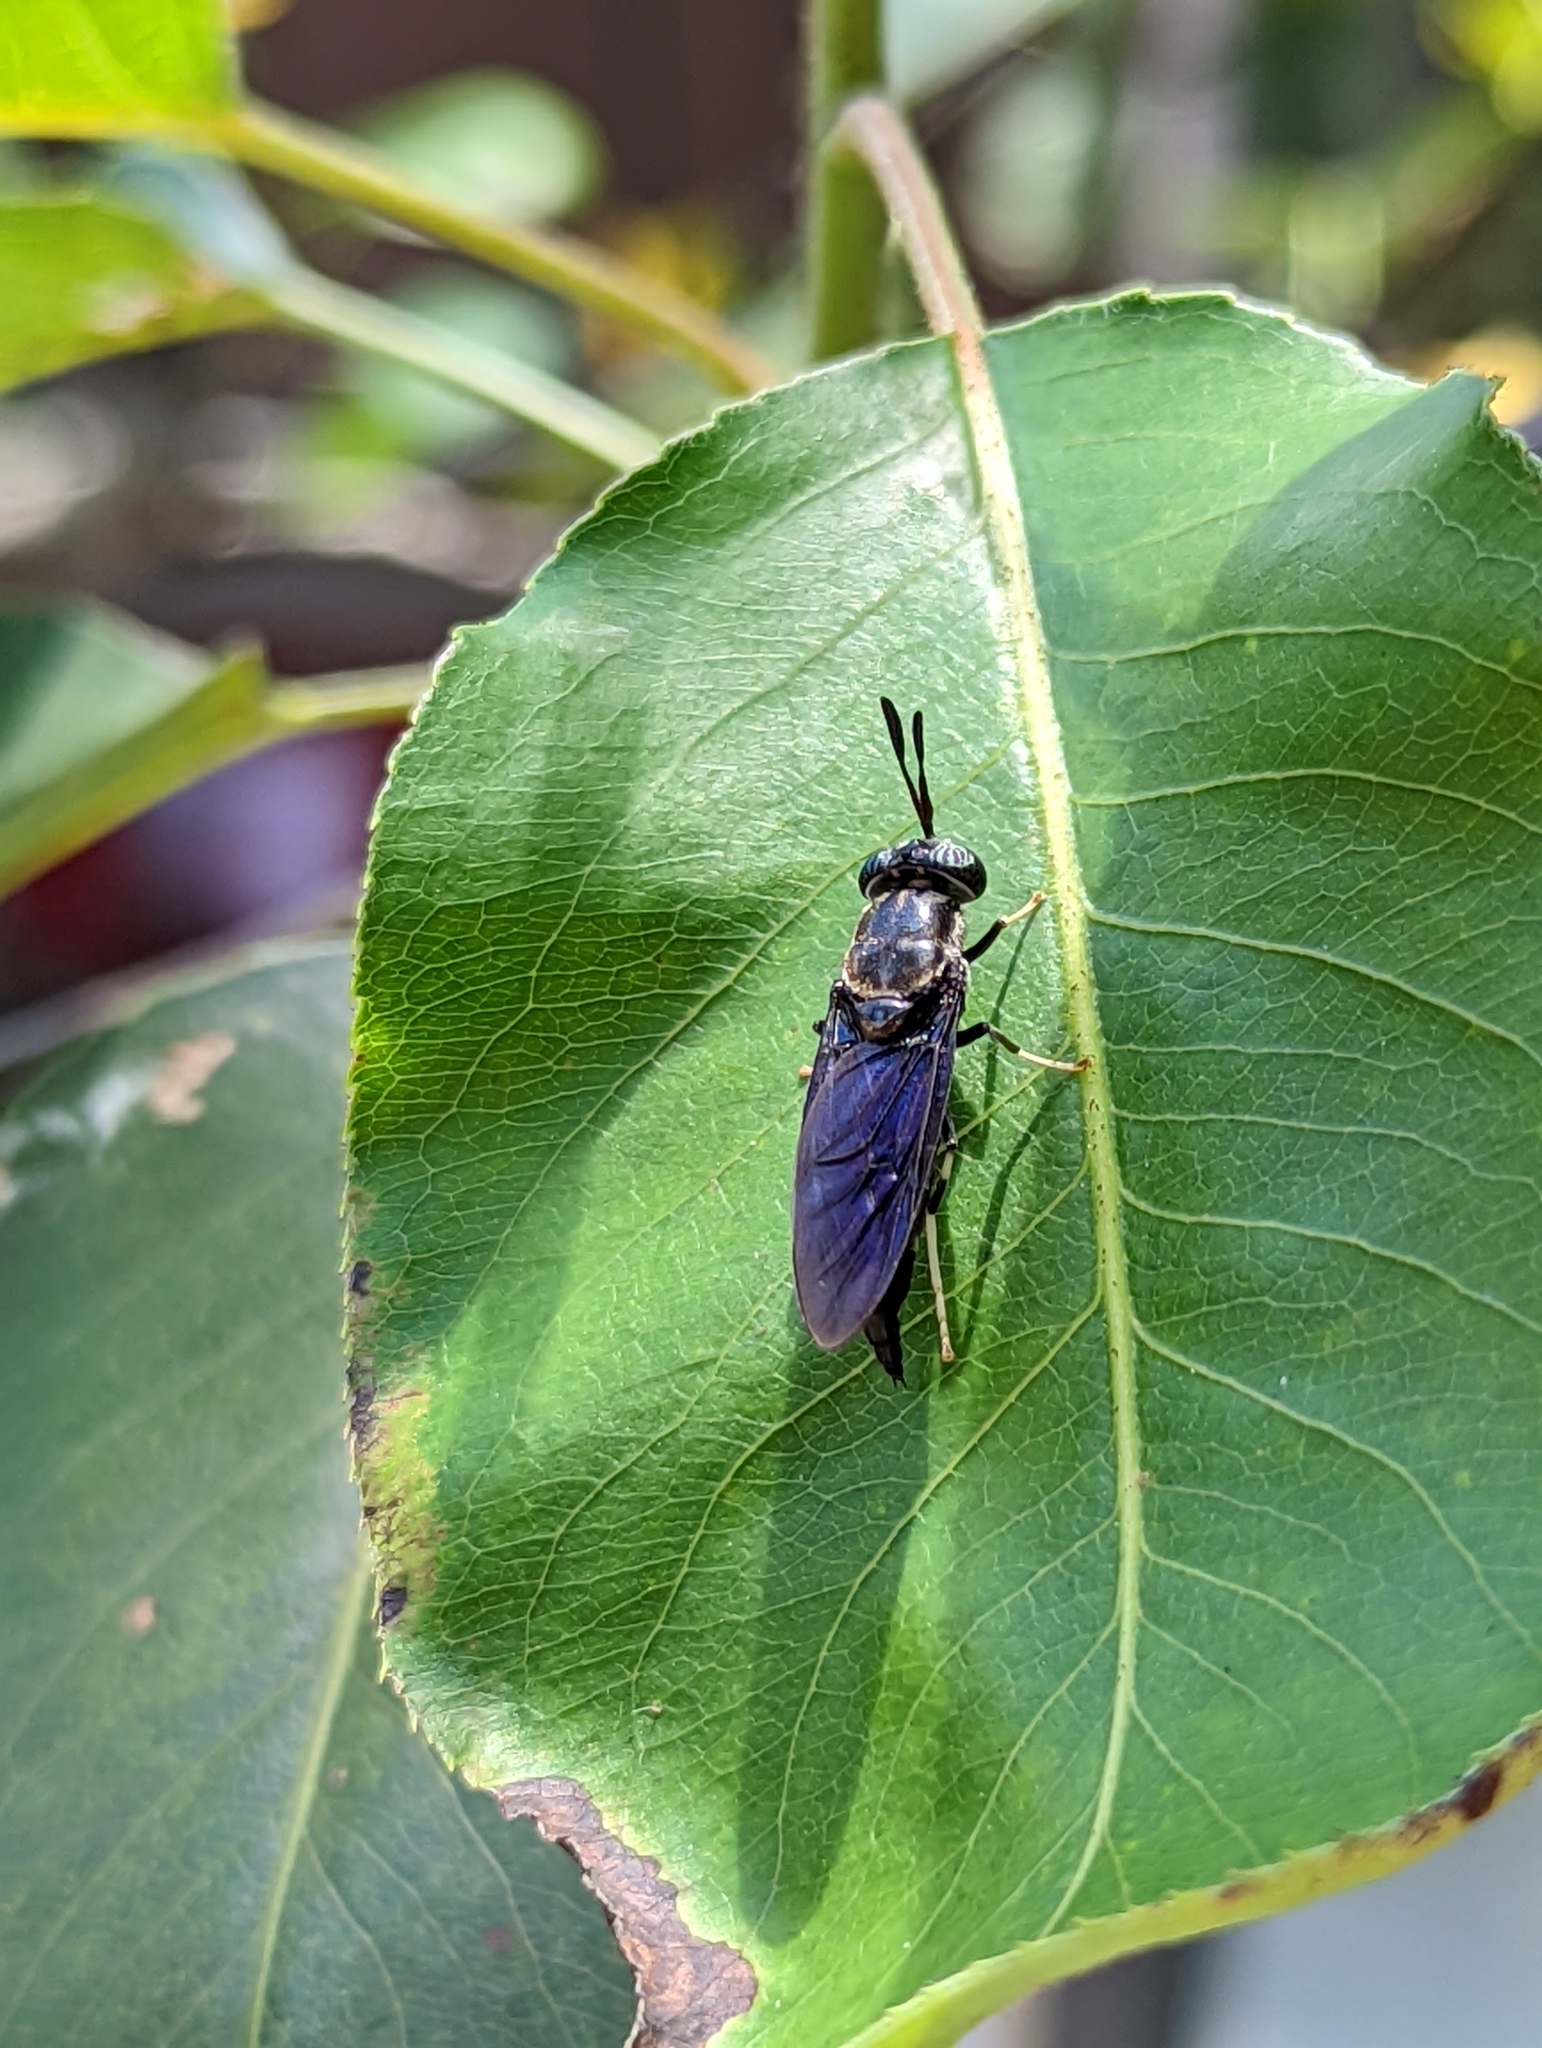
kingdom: Animalia
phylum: Arthropoda
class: Insecta
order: Diptera
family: Stratiomyidae
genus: Hermetia
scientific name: Hermetia illucens
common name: Black soldier fly
